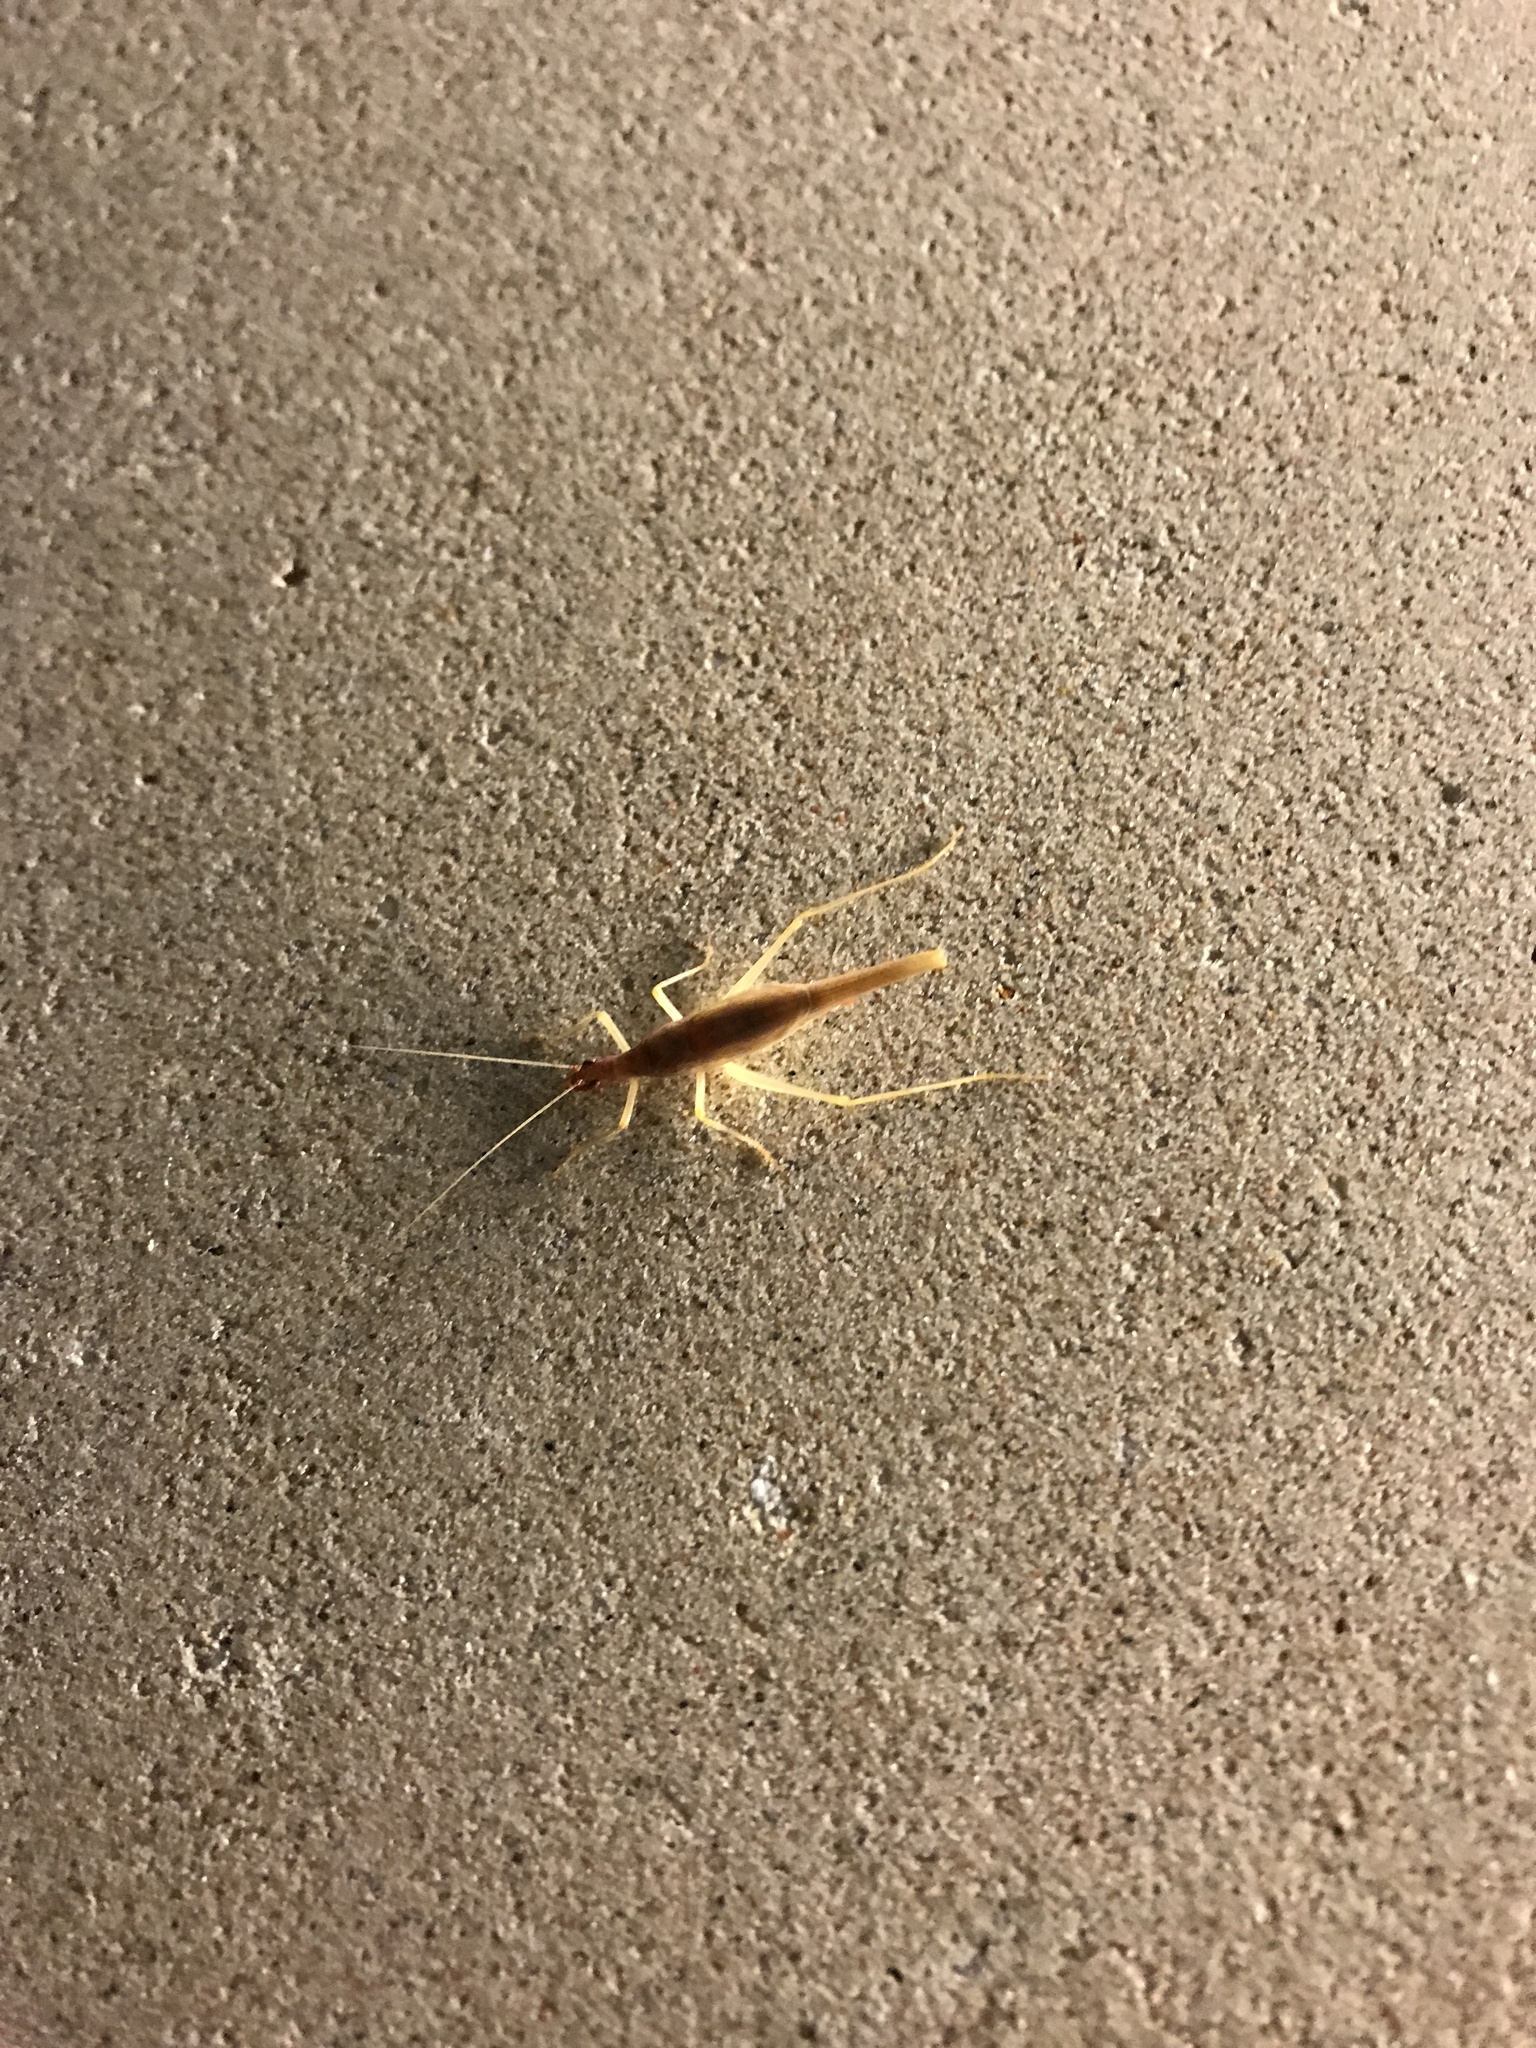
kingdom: Animalia
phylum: Arthropoda
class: Insecta
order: Orthoptera
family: Gryllidae
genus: Neoxabea
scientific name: Neoxabea bipunctata
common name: Two-spotted tree cricket
